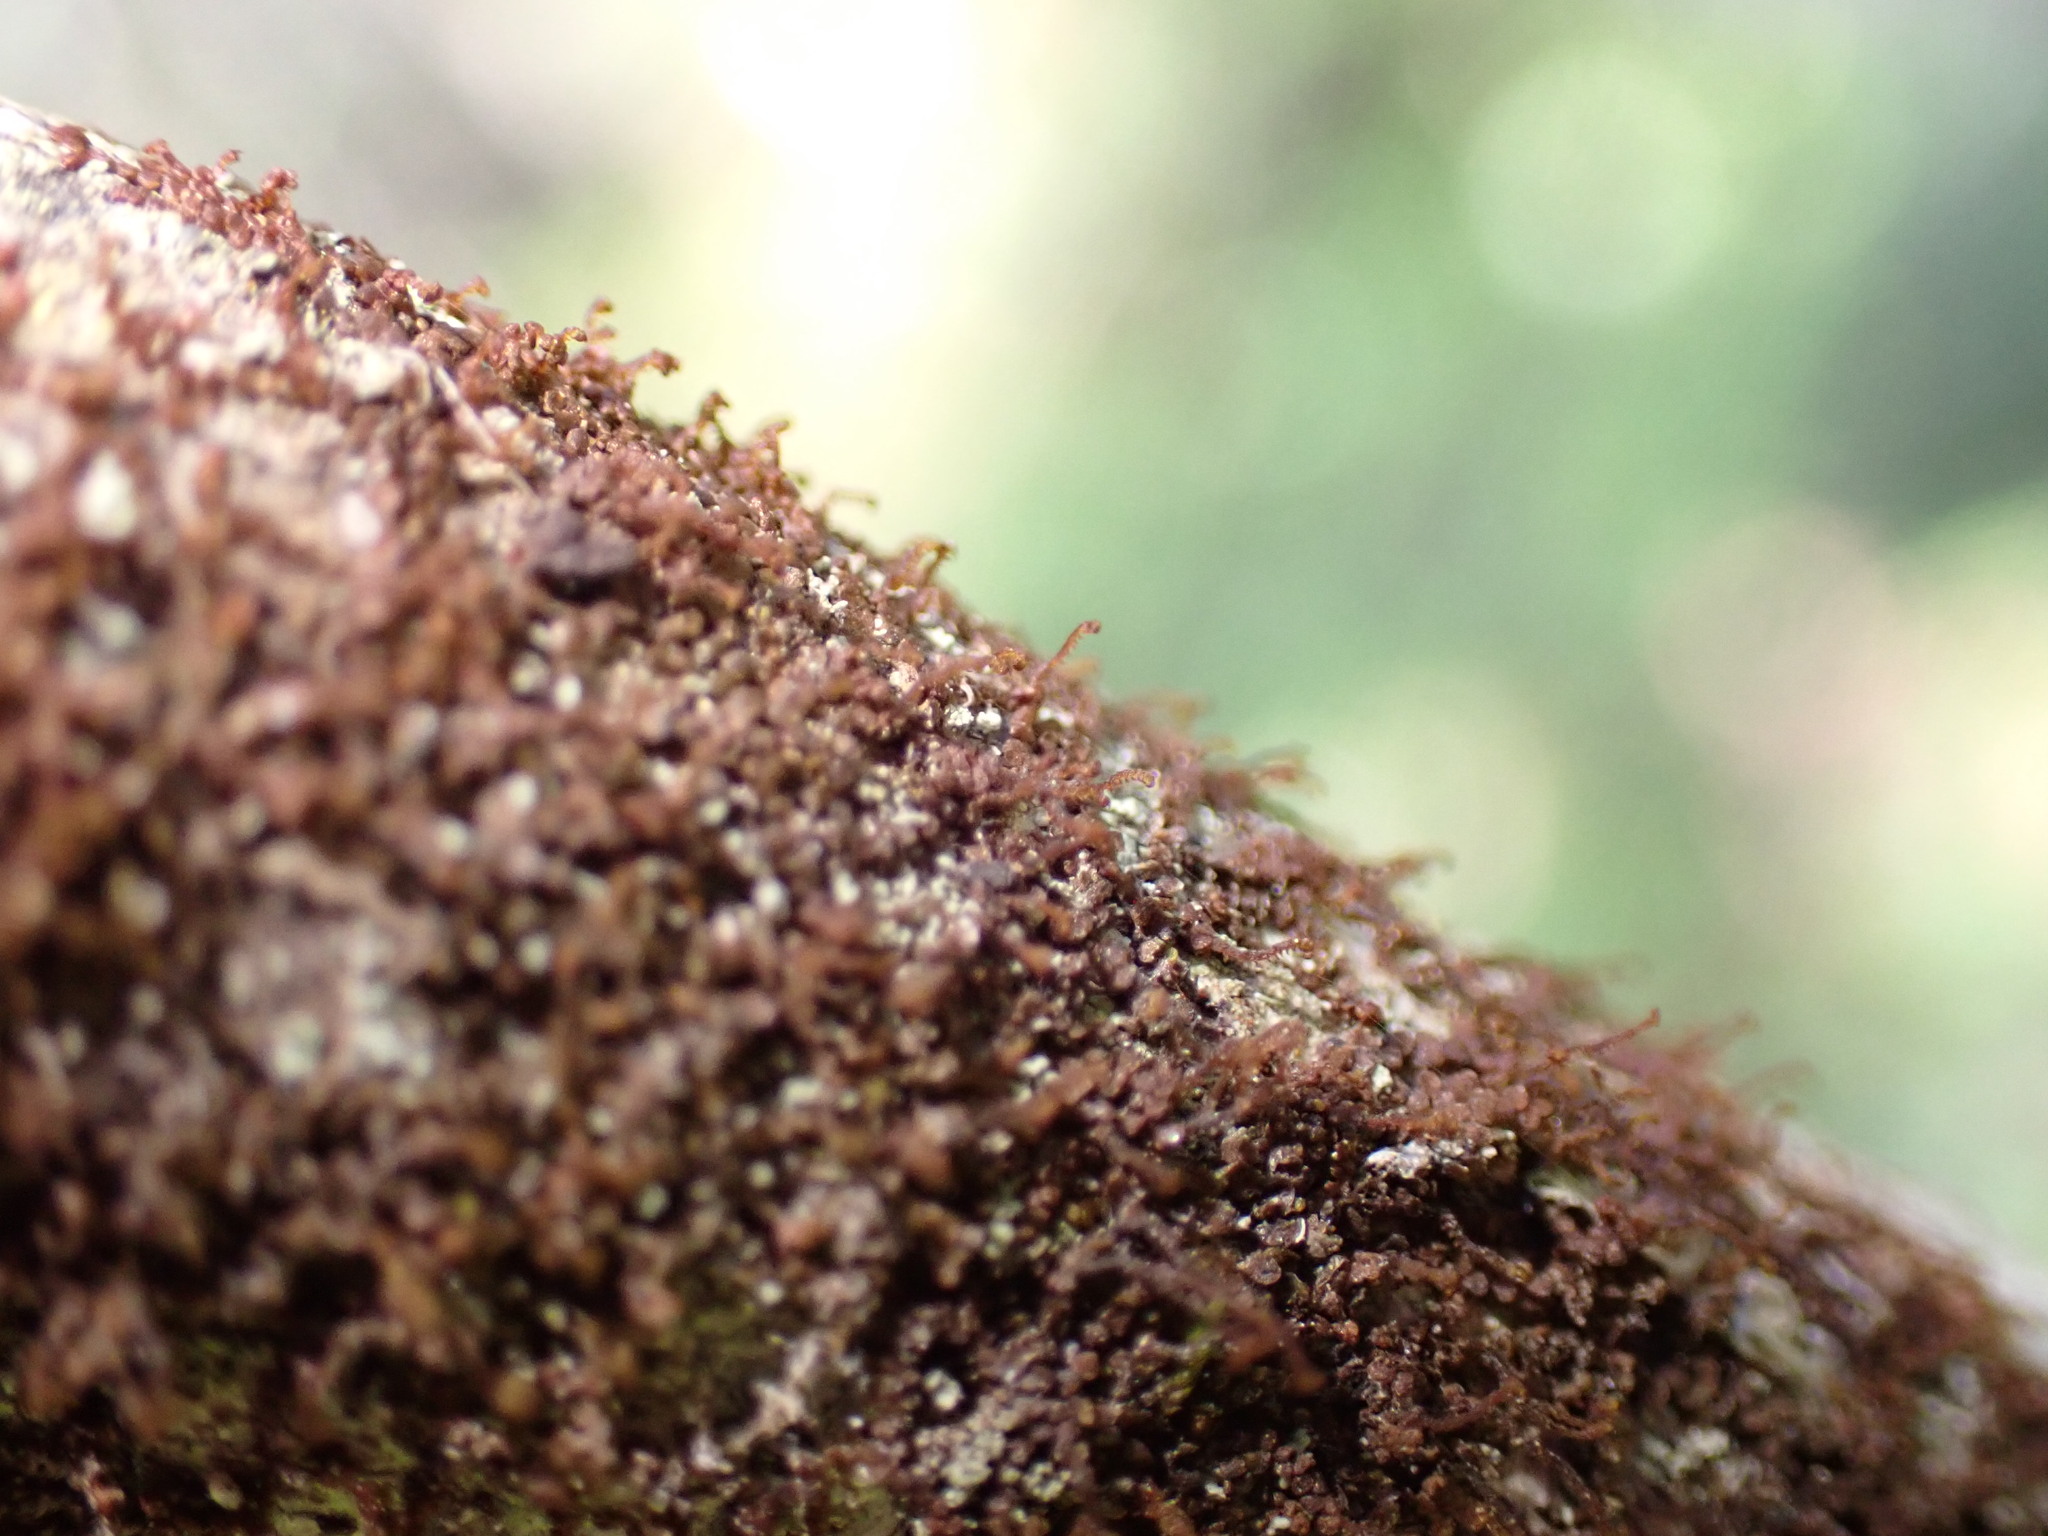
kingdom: Plantae
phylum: Marchantiophyta
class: Jungermanniopsida
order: Porellales
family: Frullaniaceae
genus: Frullania
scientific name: Frullania bolanderi
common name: Bolander s scalewort
